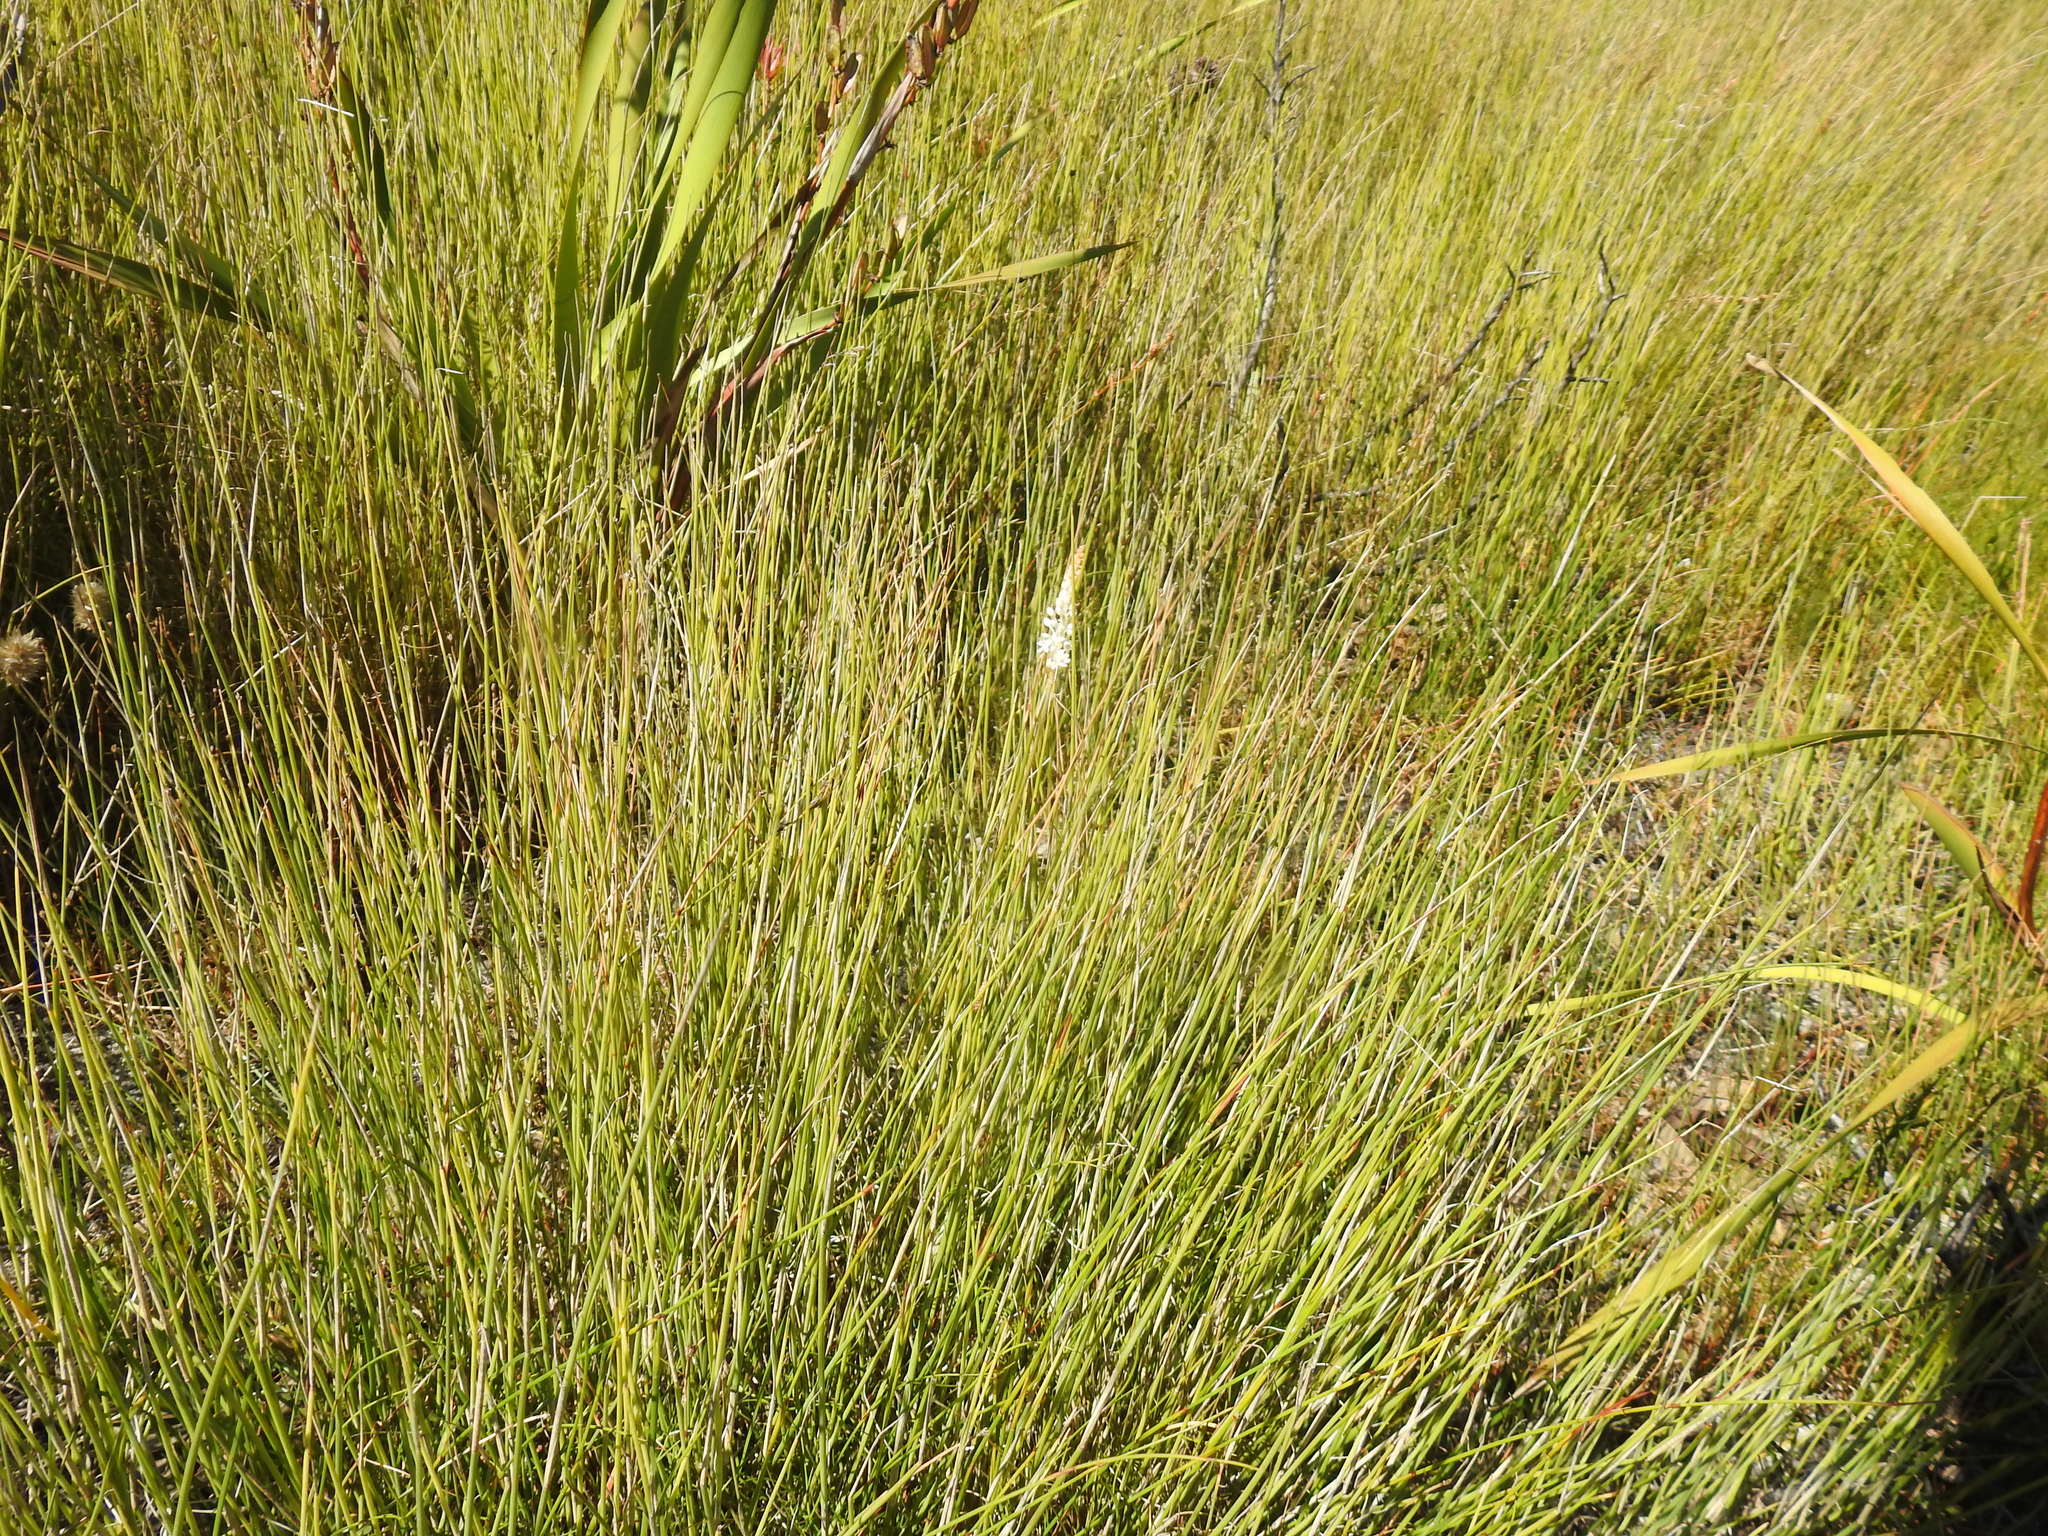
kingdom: Plantae
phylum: Tracheophyta
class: Liliopsida
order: Asparagales
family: Asphodelaceae
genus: Bulbinella
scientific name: Bulbinella trinervis
